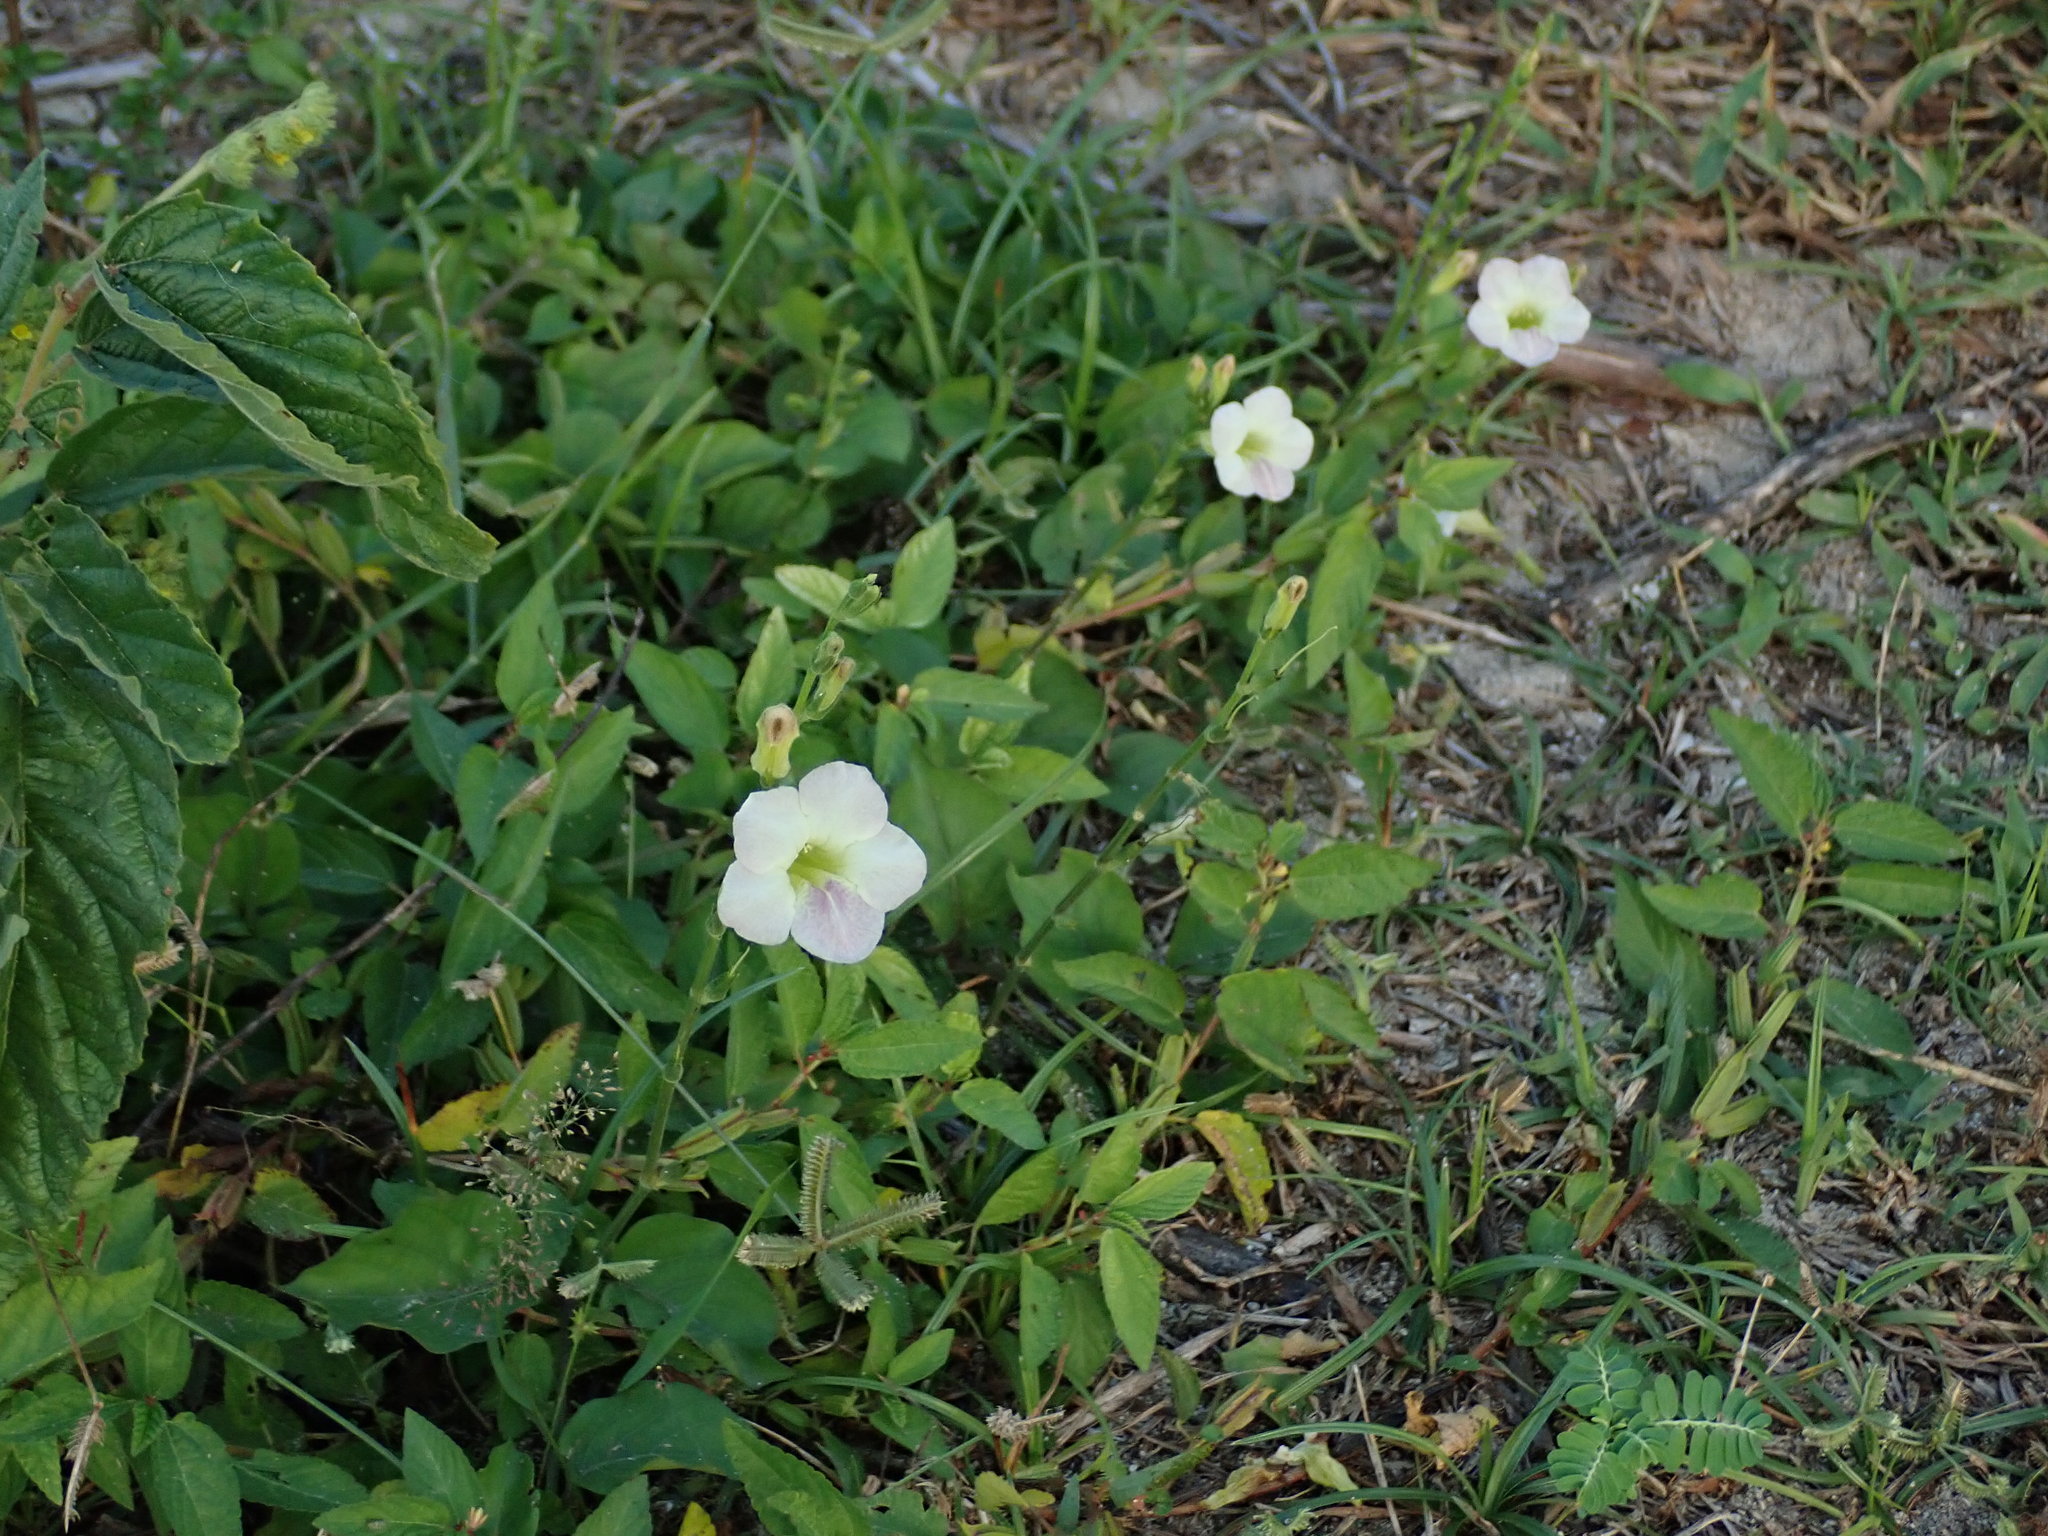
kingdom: Plantae
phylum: Tracheophyta
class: Magnoliopsida
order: Lamiales
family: Acanthaceae
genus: Asystasia
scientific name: Asystasia gangetica
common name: Chinese violet
